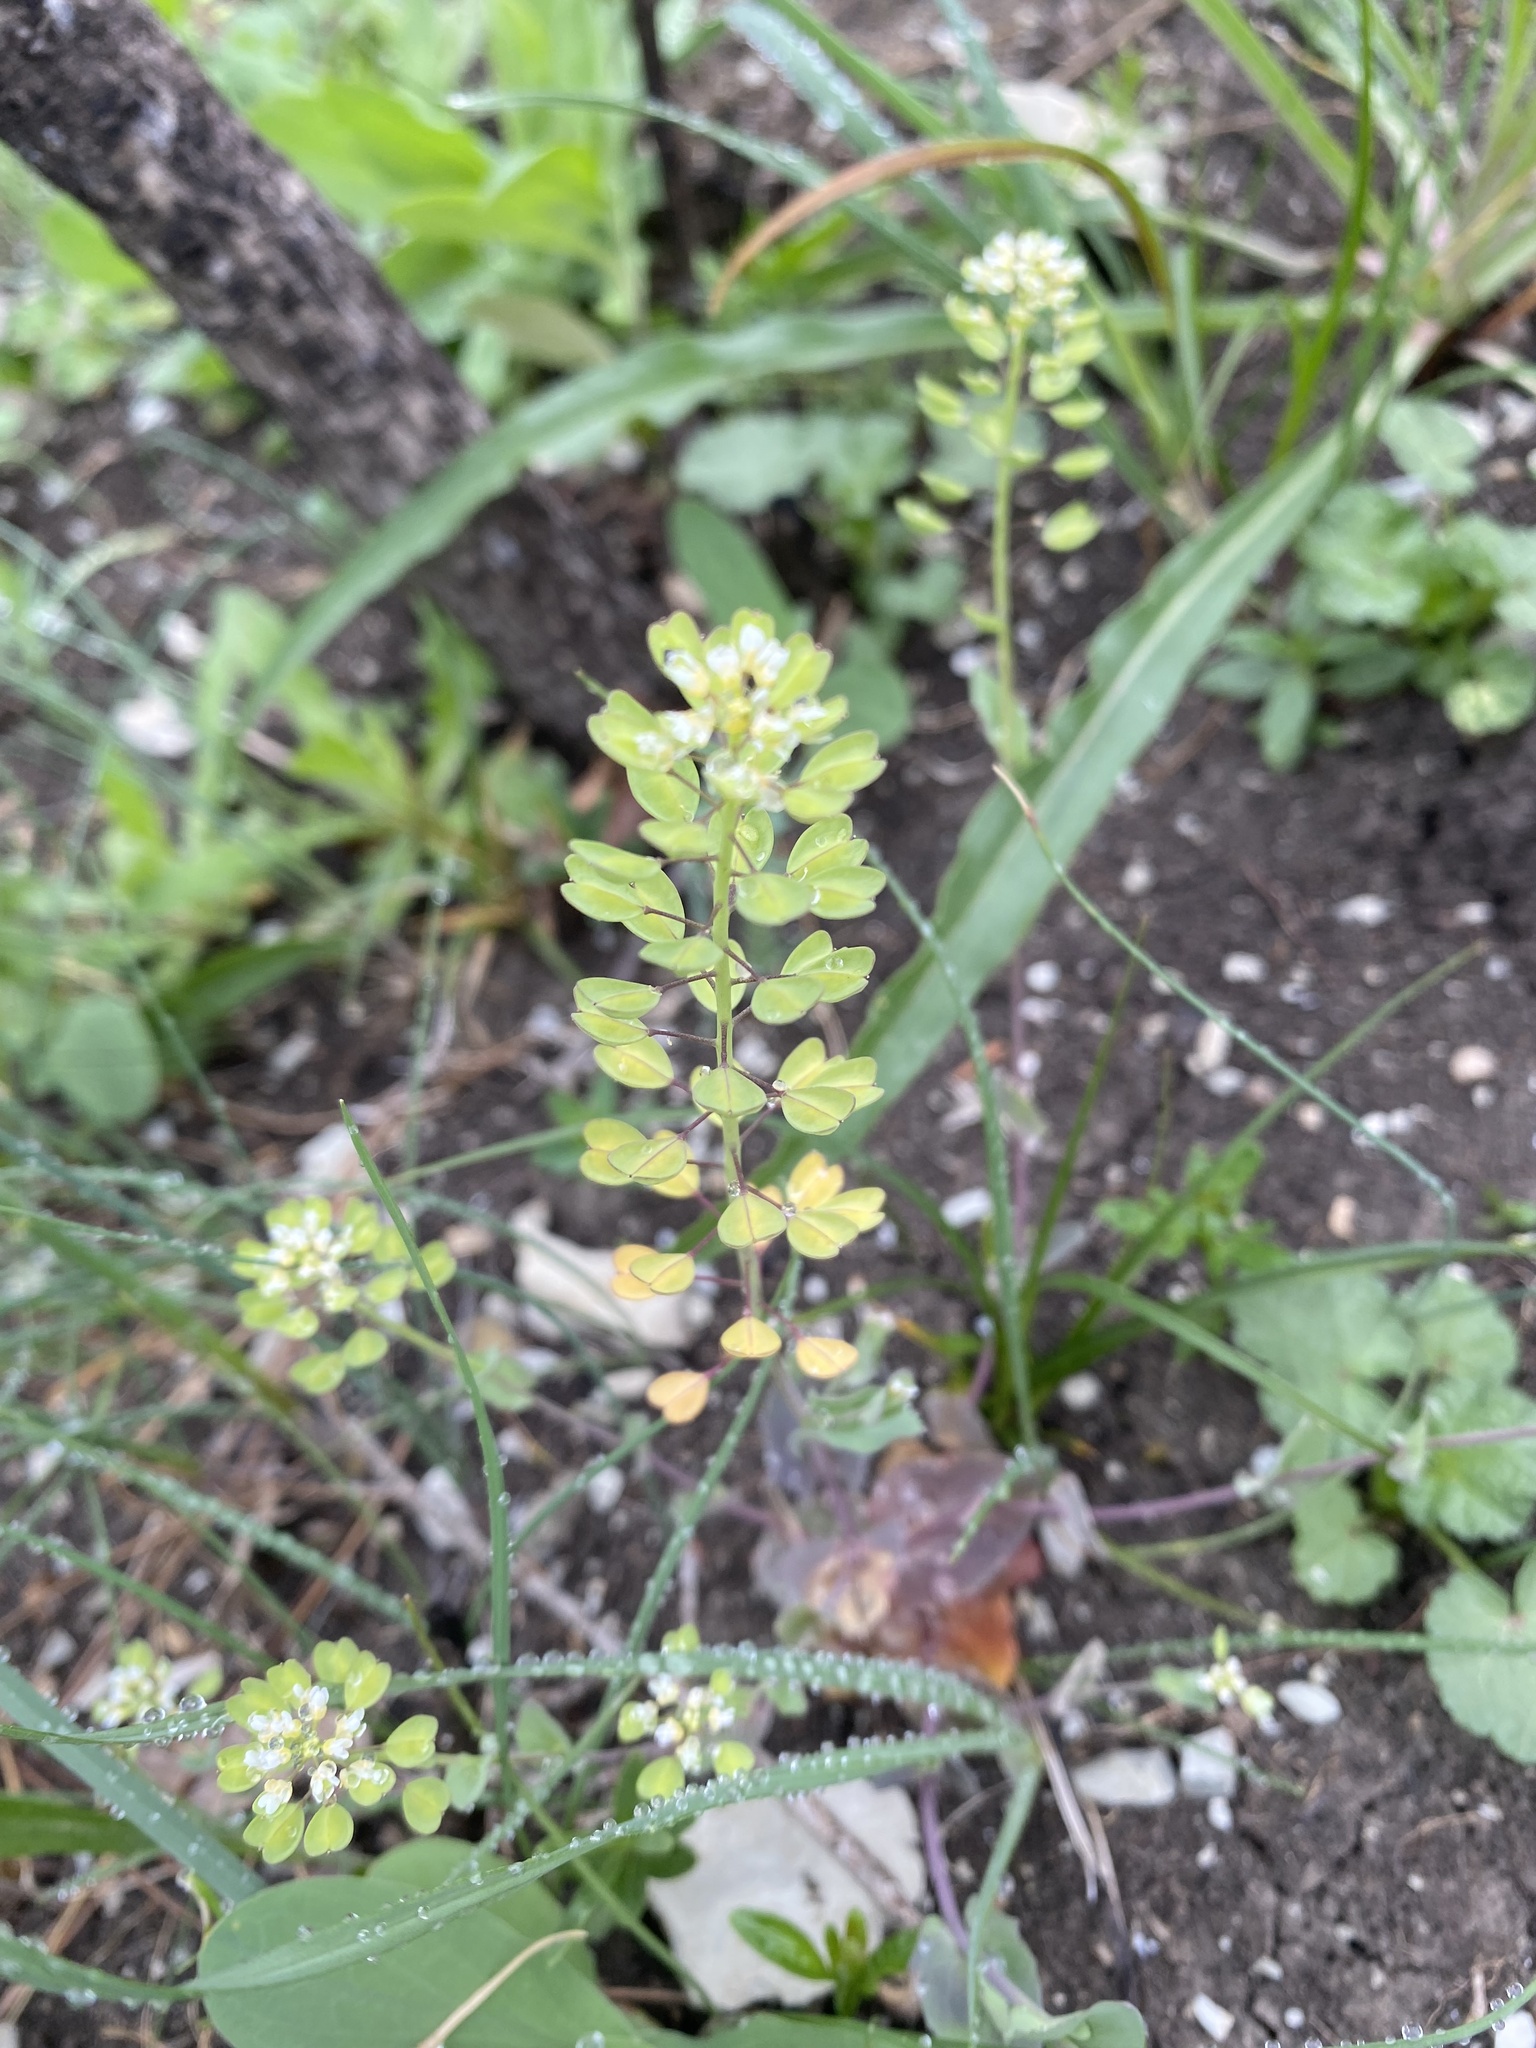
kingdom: Plantae
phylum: Tracheophyta
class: Magnoliopsida
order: Brassicales
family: Brassicaceae
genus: Noccaea
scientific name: Noccaea perfoliata
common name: Perfoliate pennycress
